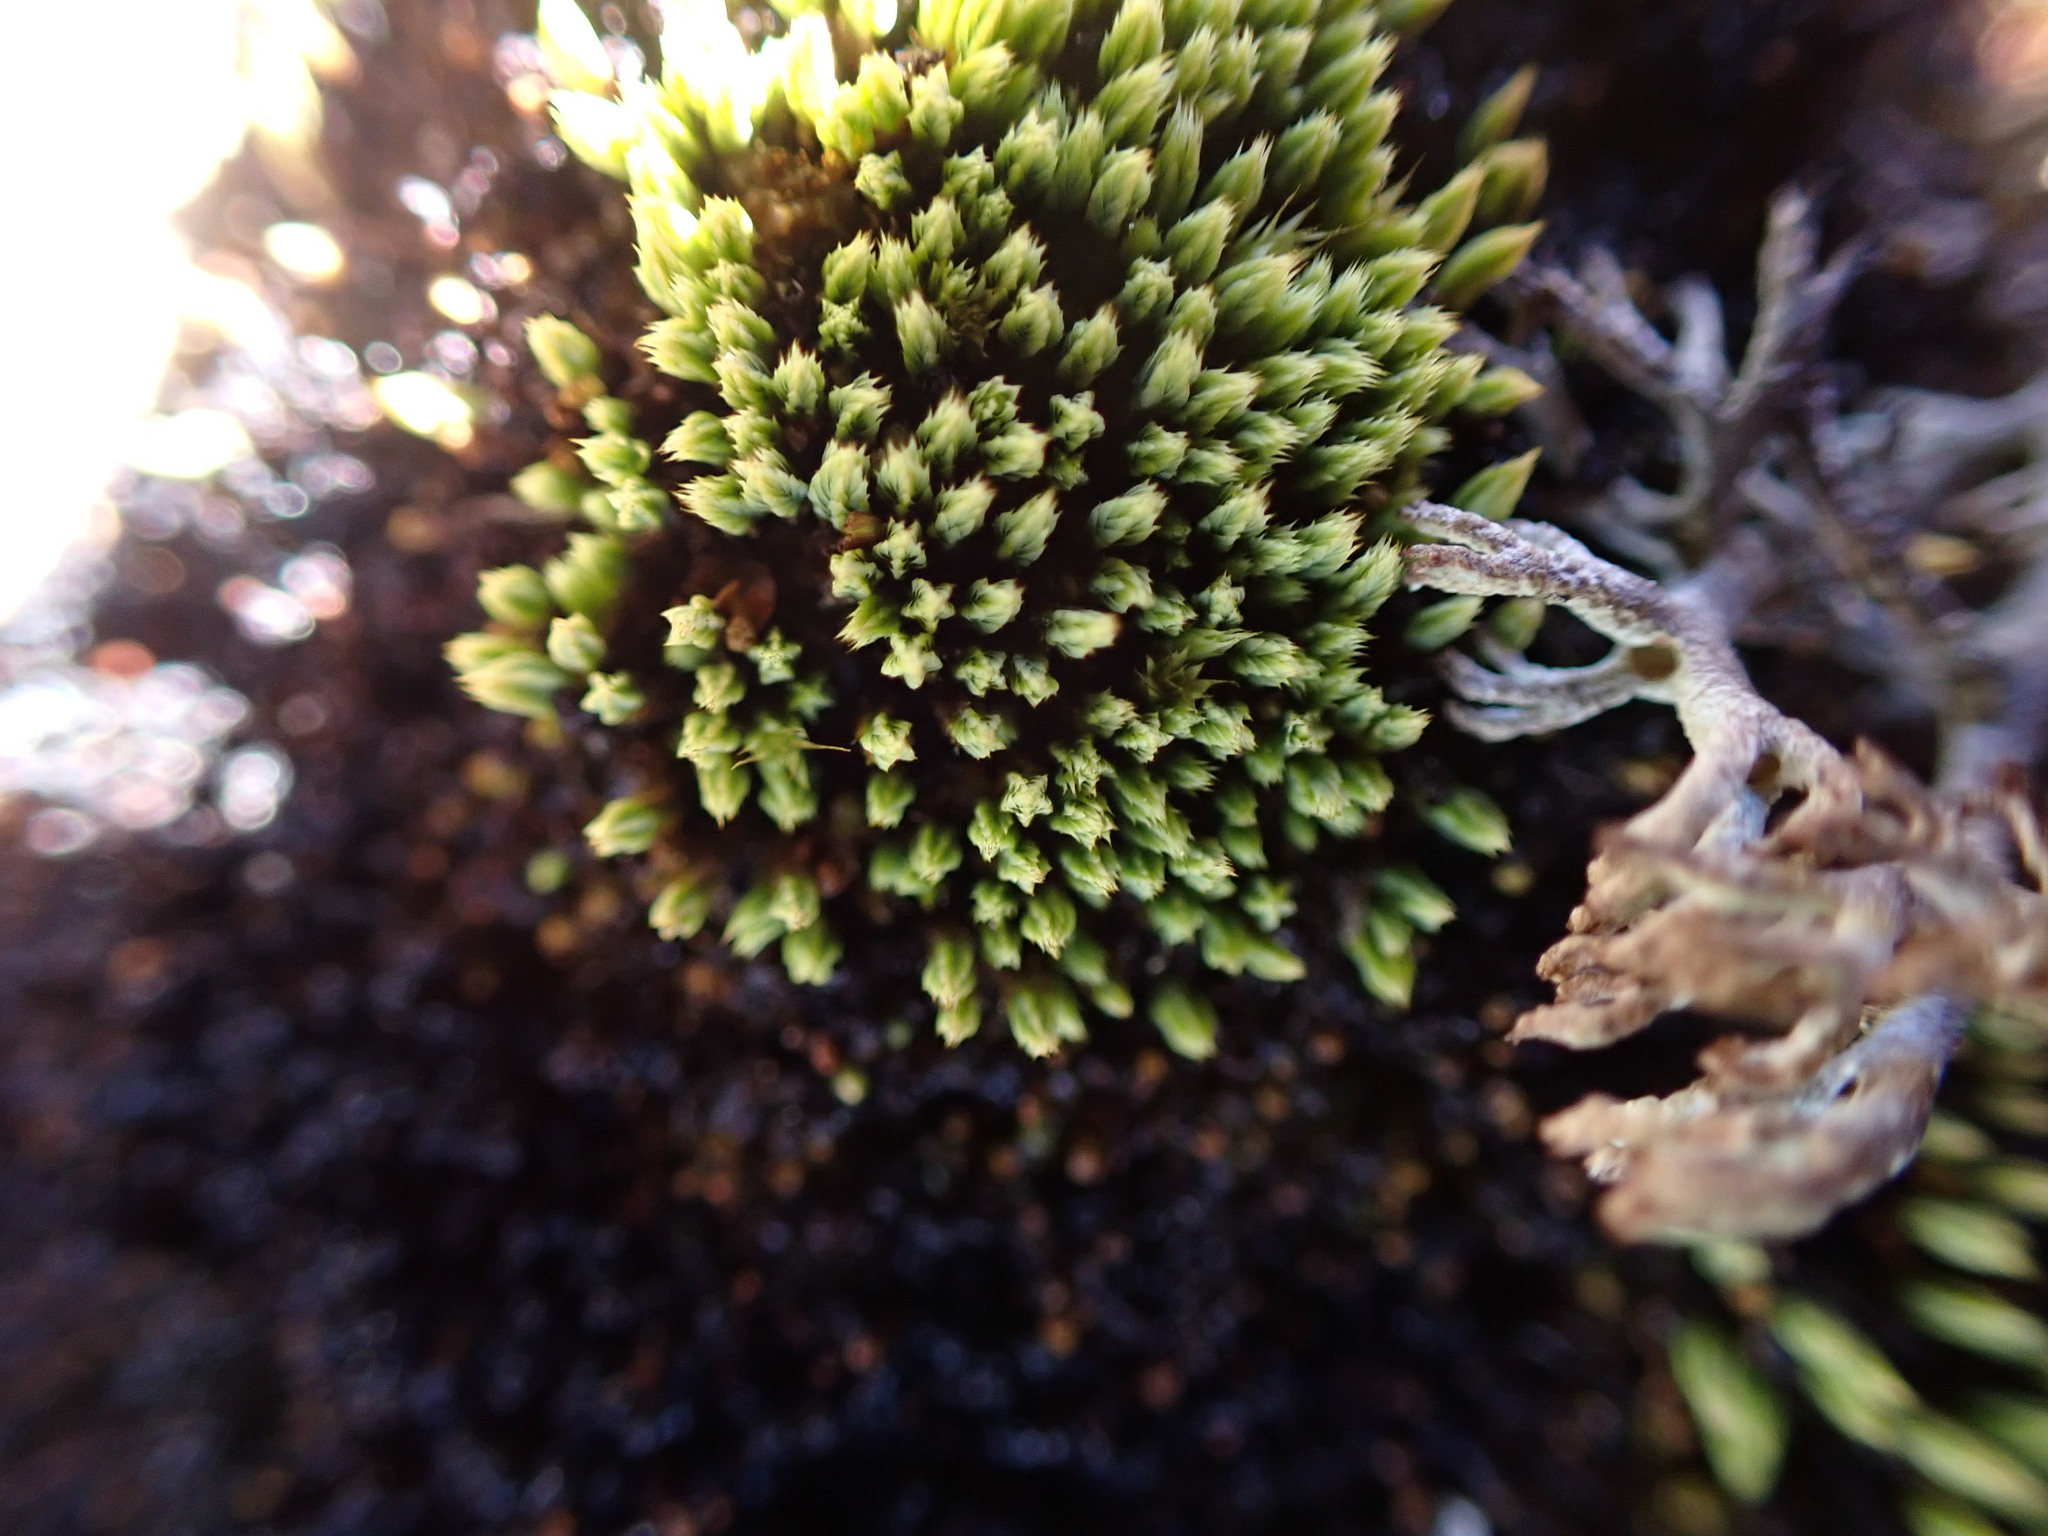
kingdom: Plantae
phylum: Bryophyta
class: Bryopsida
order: Bartramiales
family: Bartramiaceae
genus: Conostomum
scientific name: Conostomum tetragonum
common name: Helmet moss
